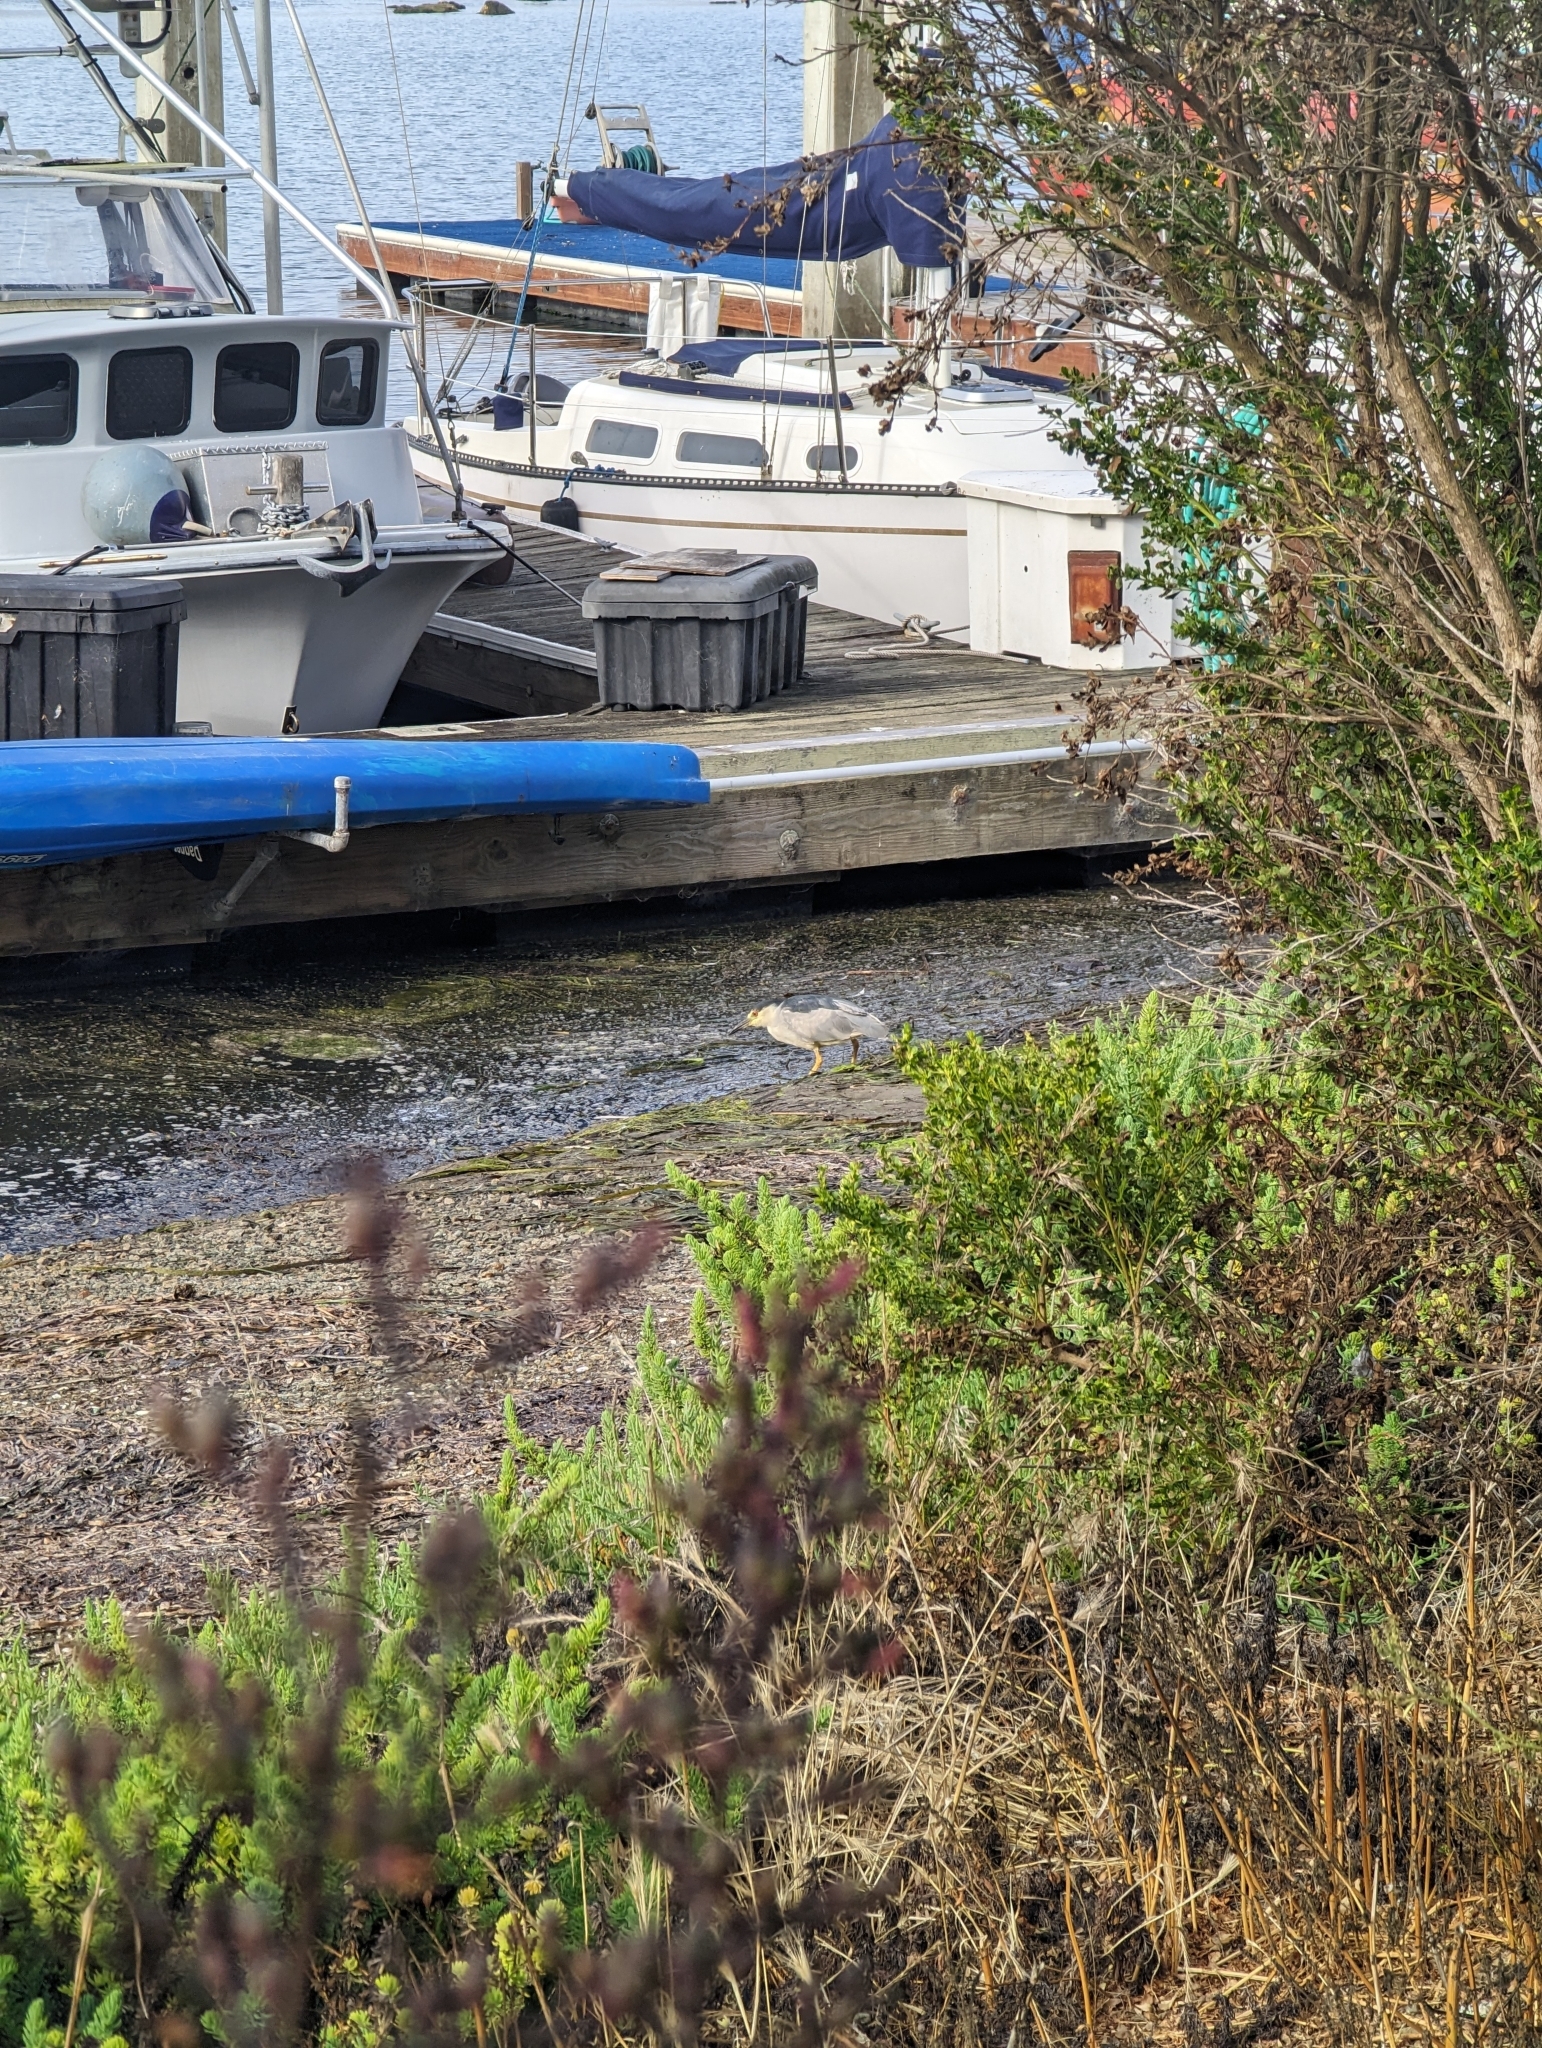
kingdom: Animalia
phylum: Chordata
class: Aves
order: Pelecaniformes
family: Ardeidae
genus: Nycticorax
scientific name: Nycticorax nycticorax
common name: Black-crowned night heron
